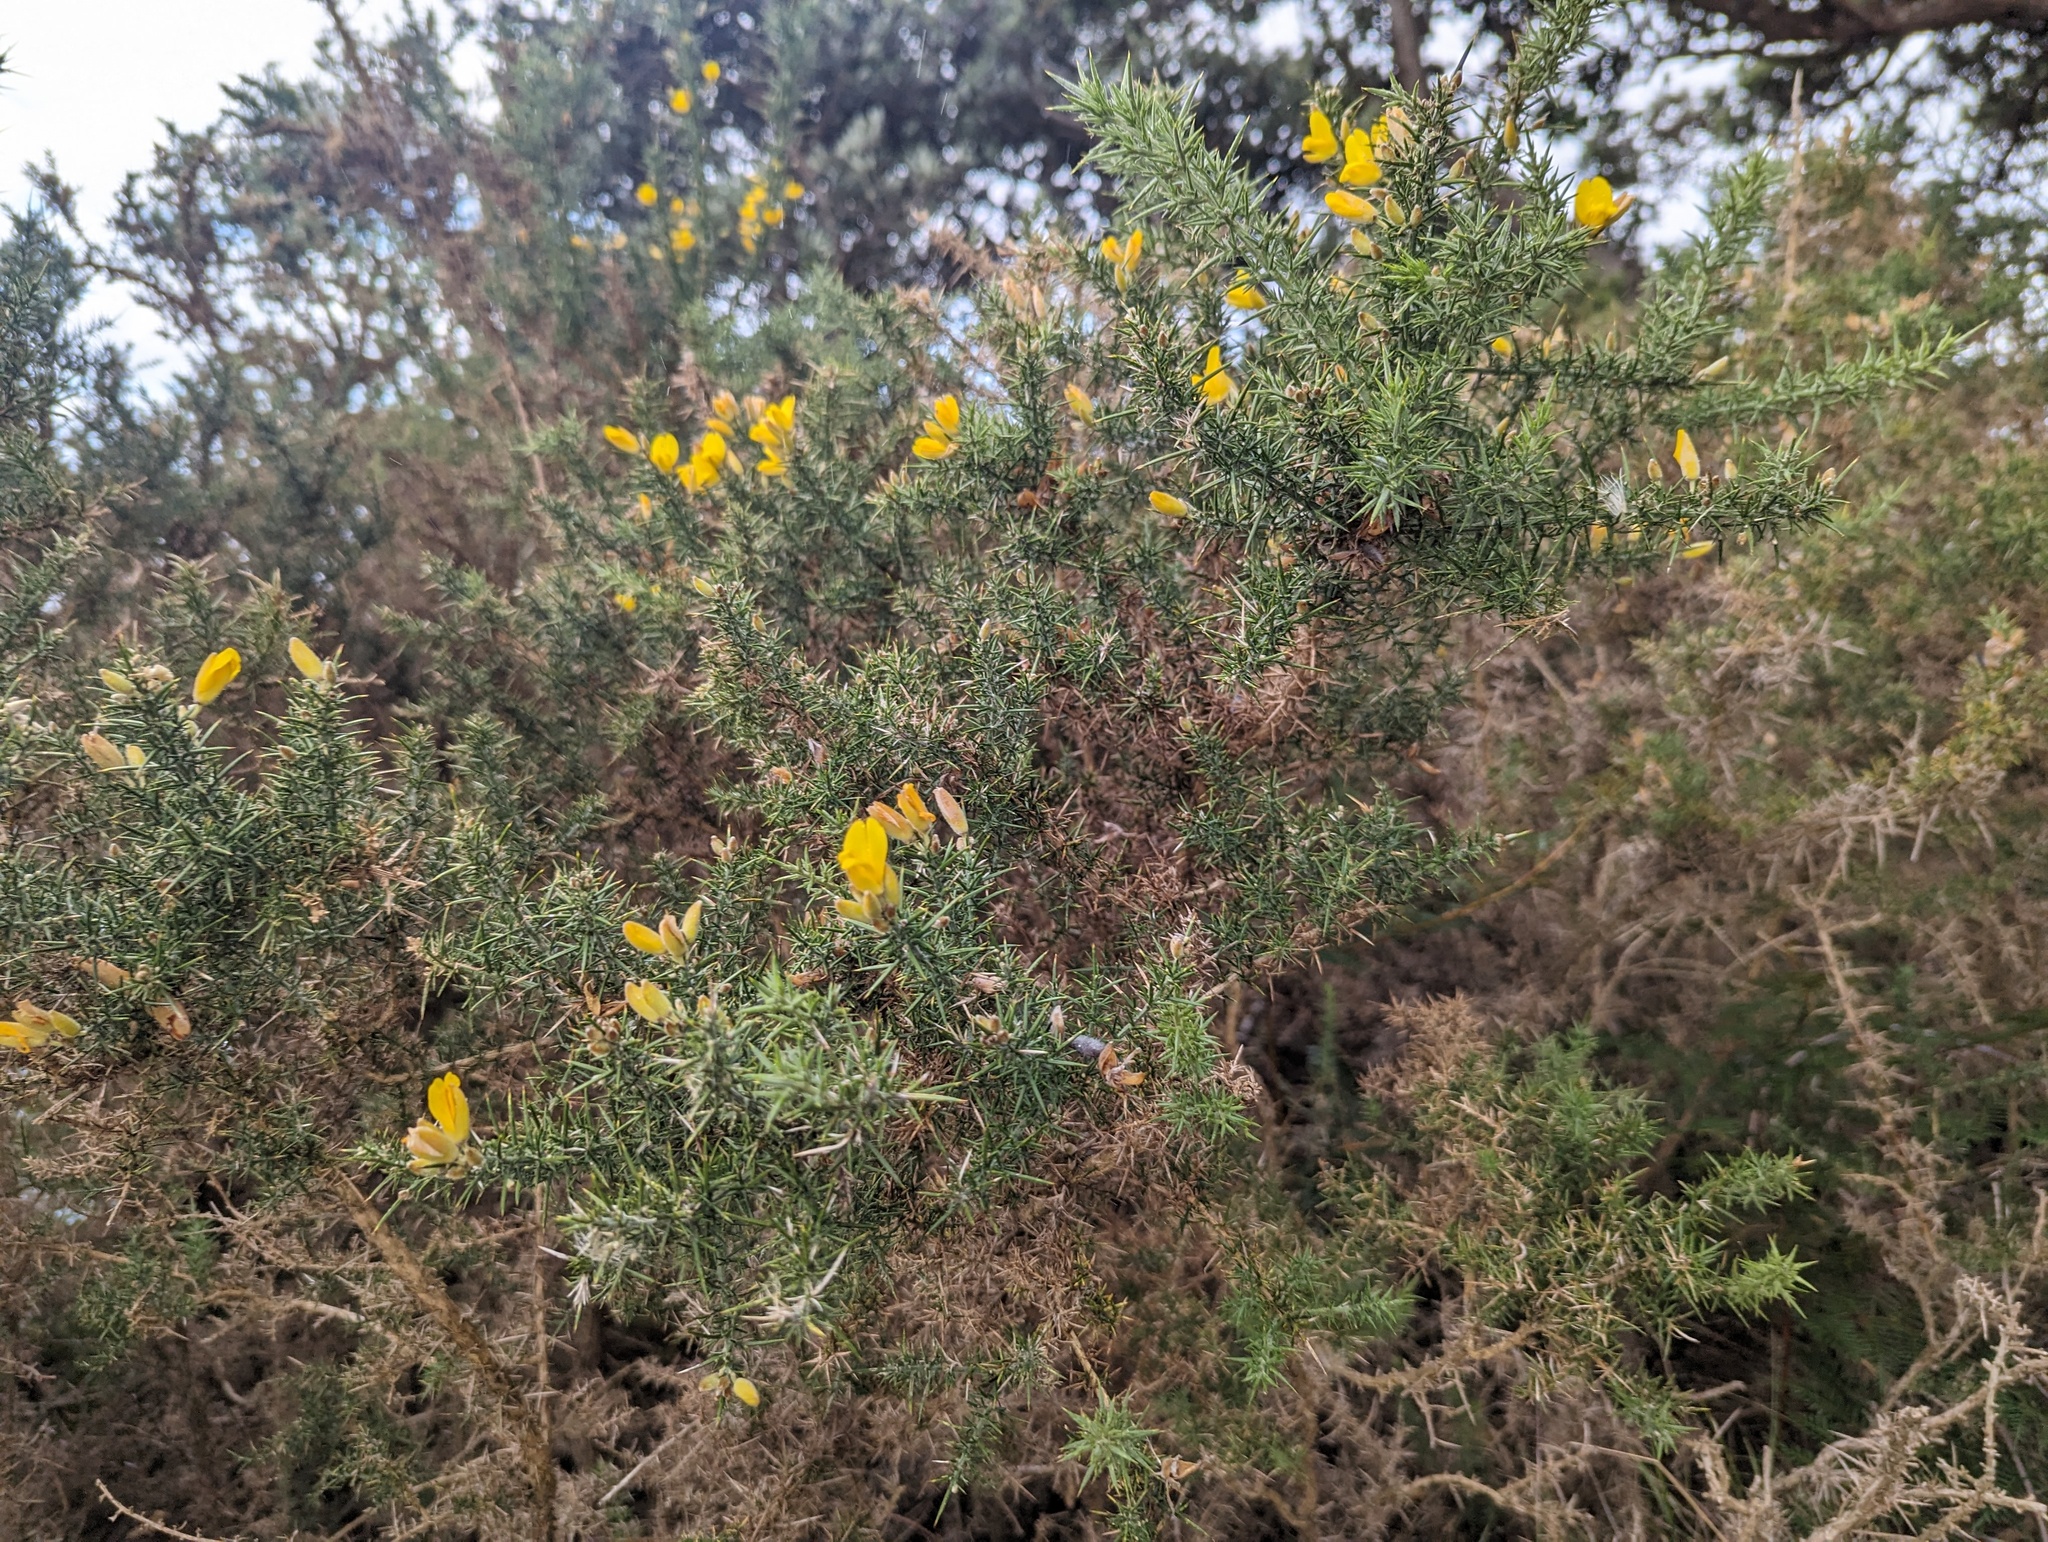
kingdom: Plantae
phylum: Tracheophyta
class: Magnoliopsida
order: Fabales
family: Fabaceae
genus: Ulex
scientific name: Ulex europaeus
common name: Common gorse
